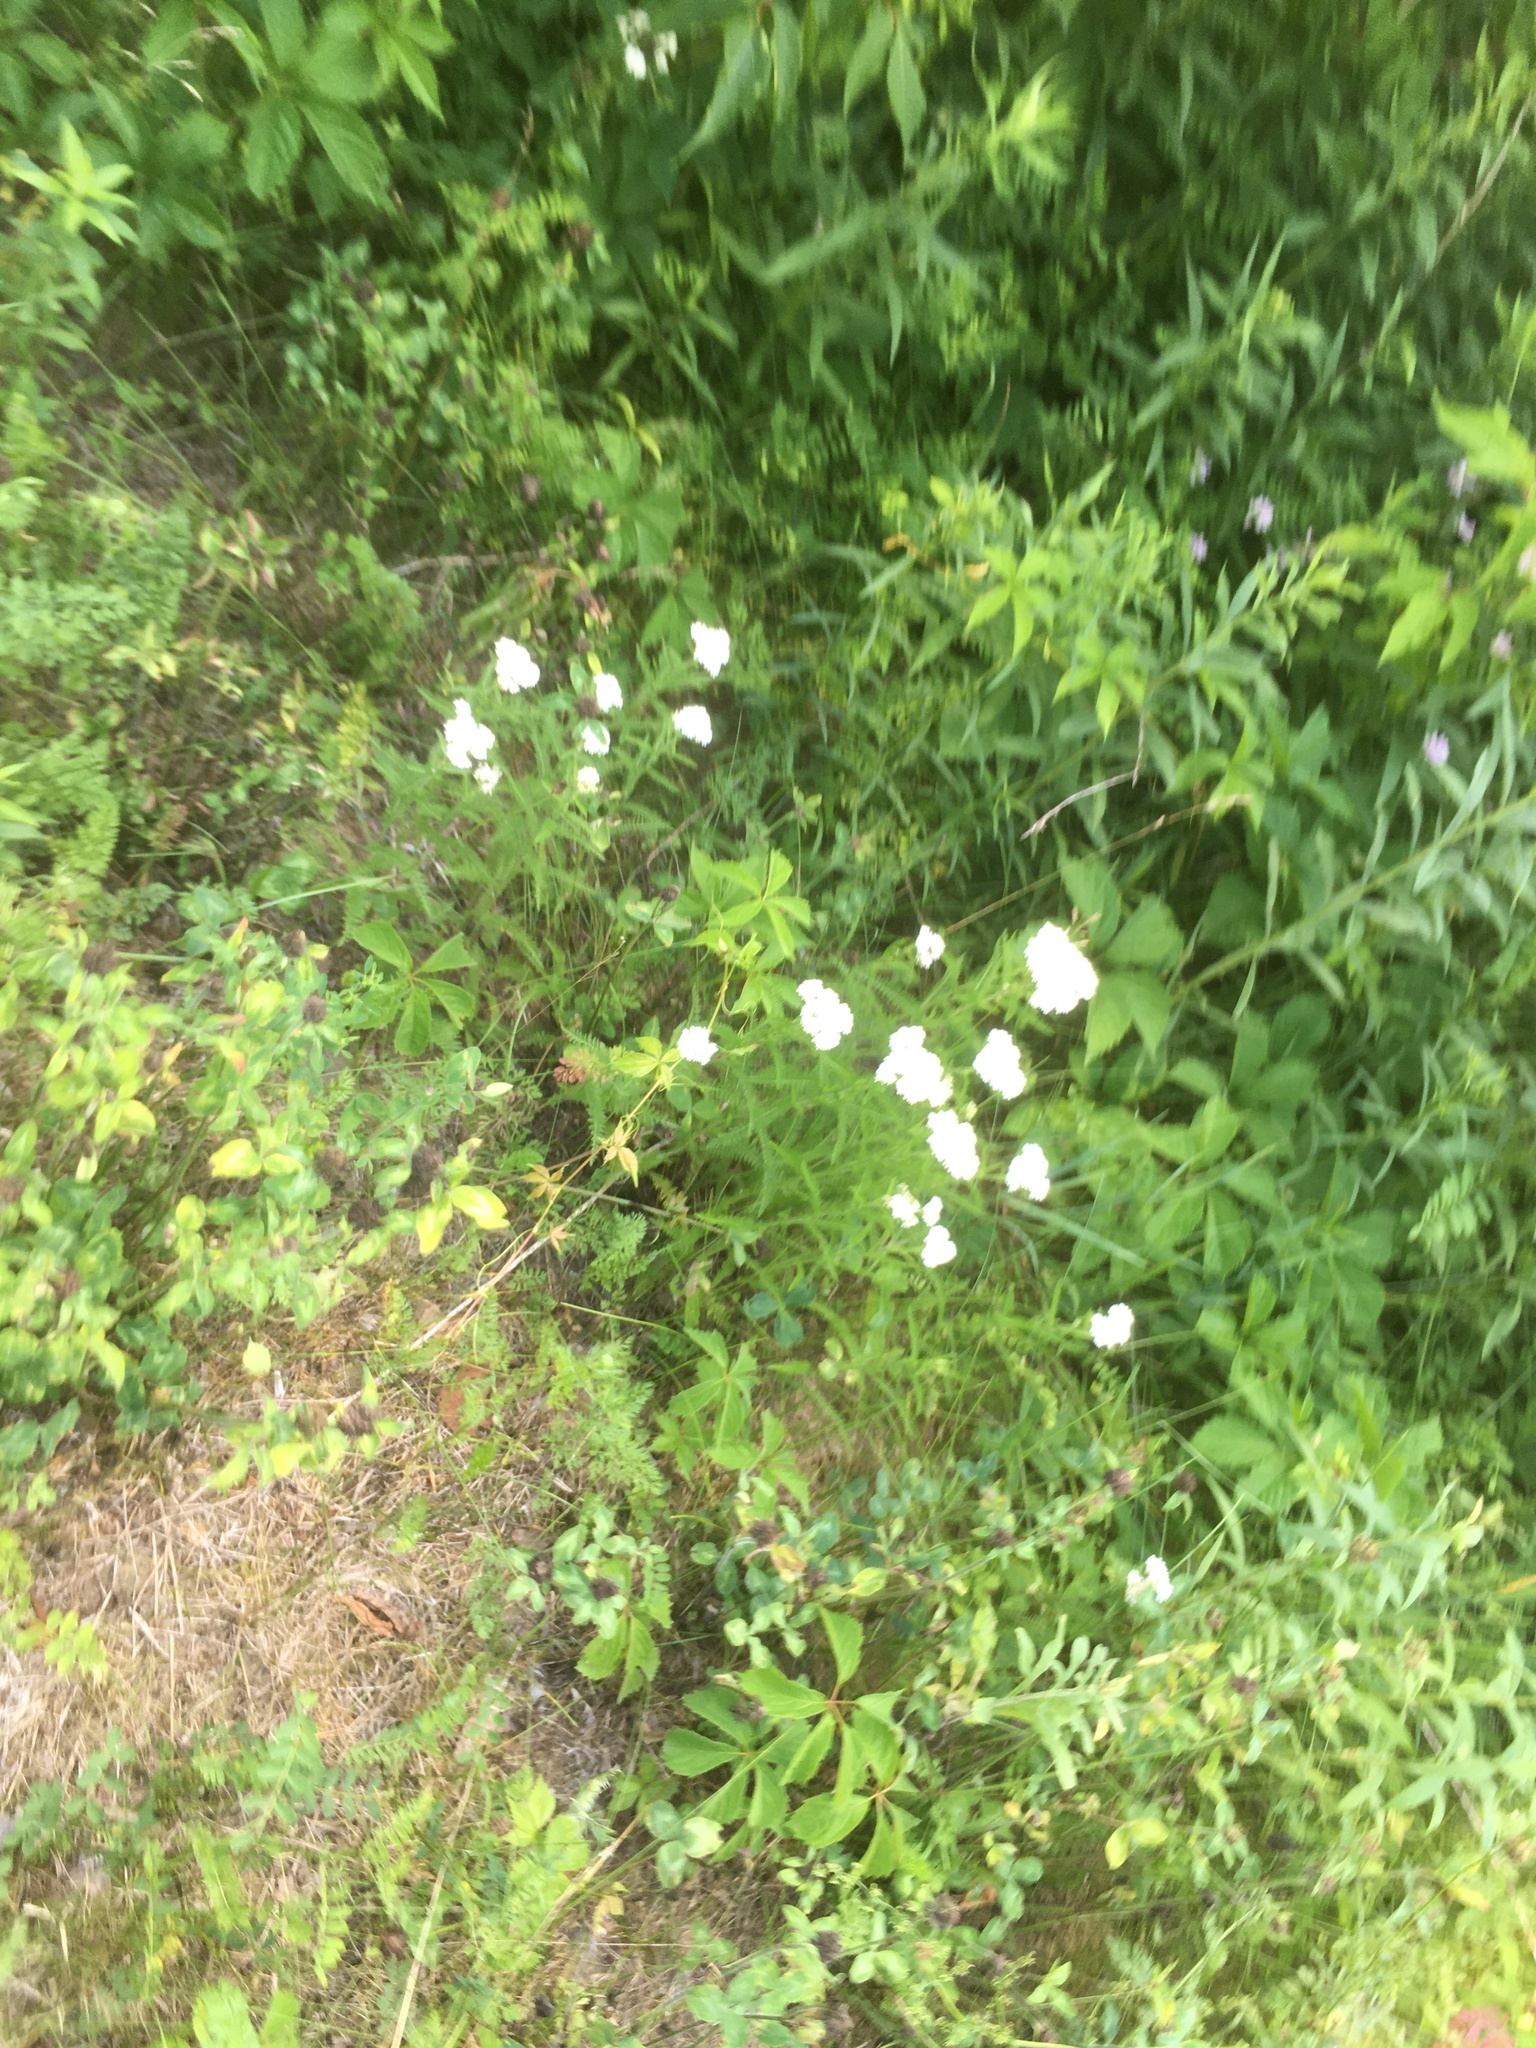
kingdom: Plantae
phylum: Tracheophyta
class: Magnoliopsida
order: Asterales
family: Asteraceae
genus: Achillea
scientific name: Achillea millefolium
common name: Yarrow
